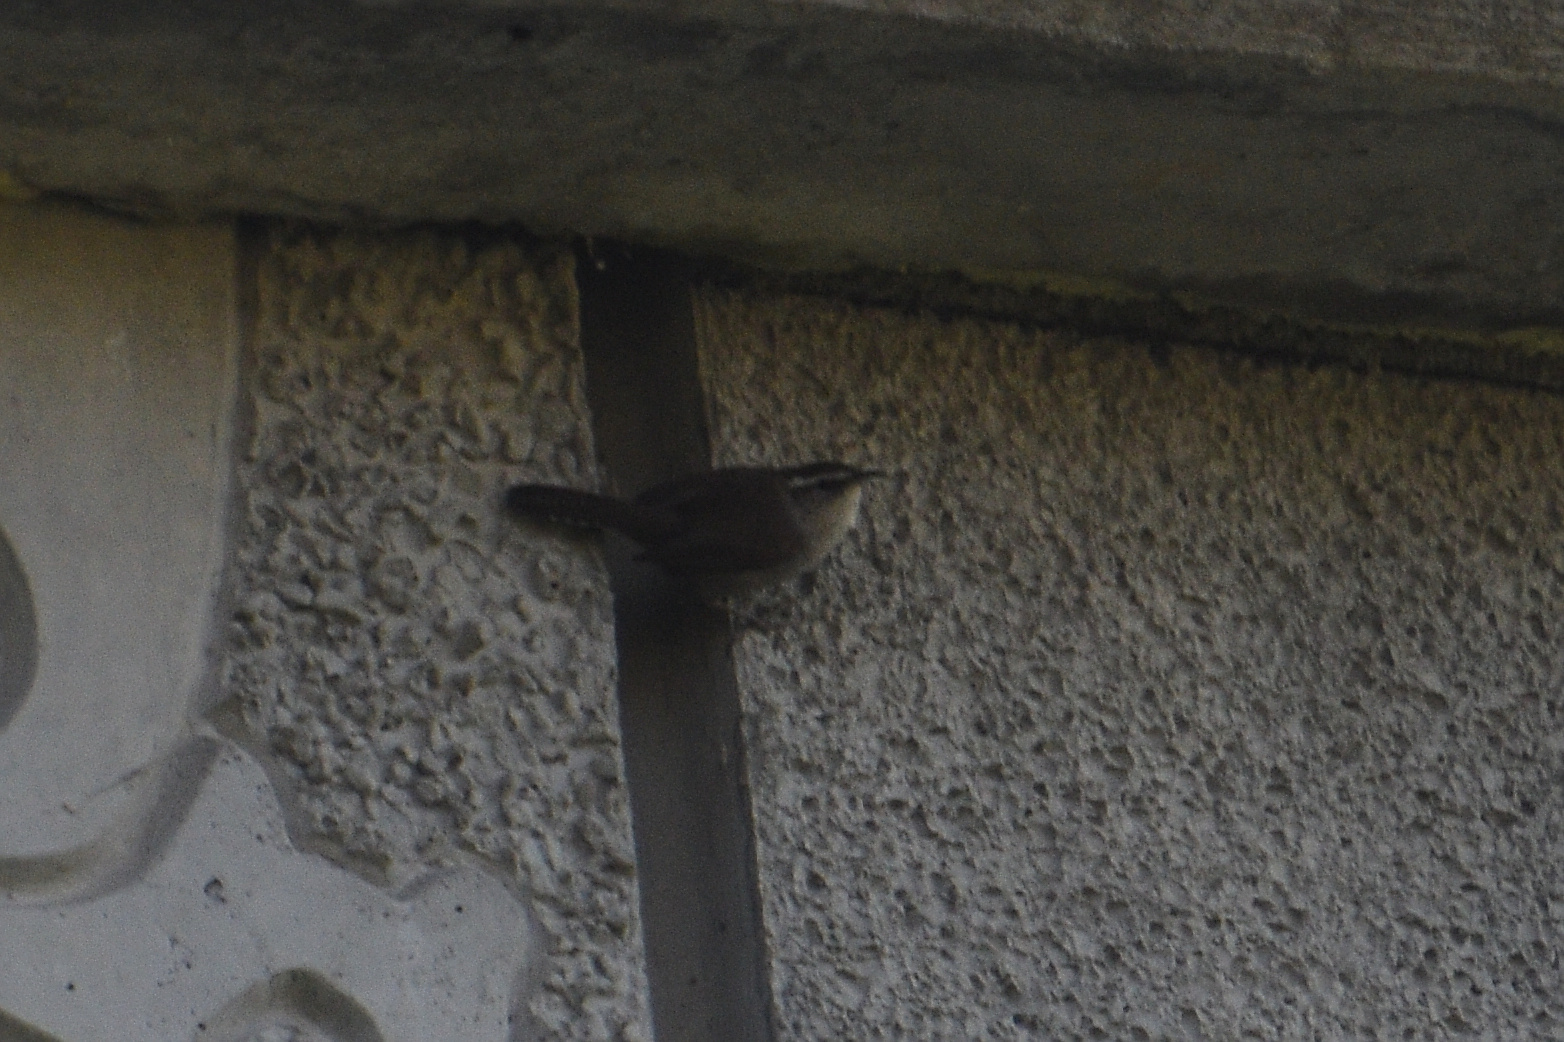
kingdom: Animalia
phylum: Chordata
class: Aves
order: Passeriformes
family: Troglodytidae
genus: Thryomanes
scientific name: Thryomanes bewickii
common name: Bewick's wren
